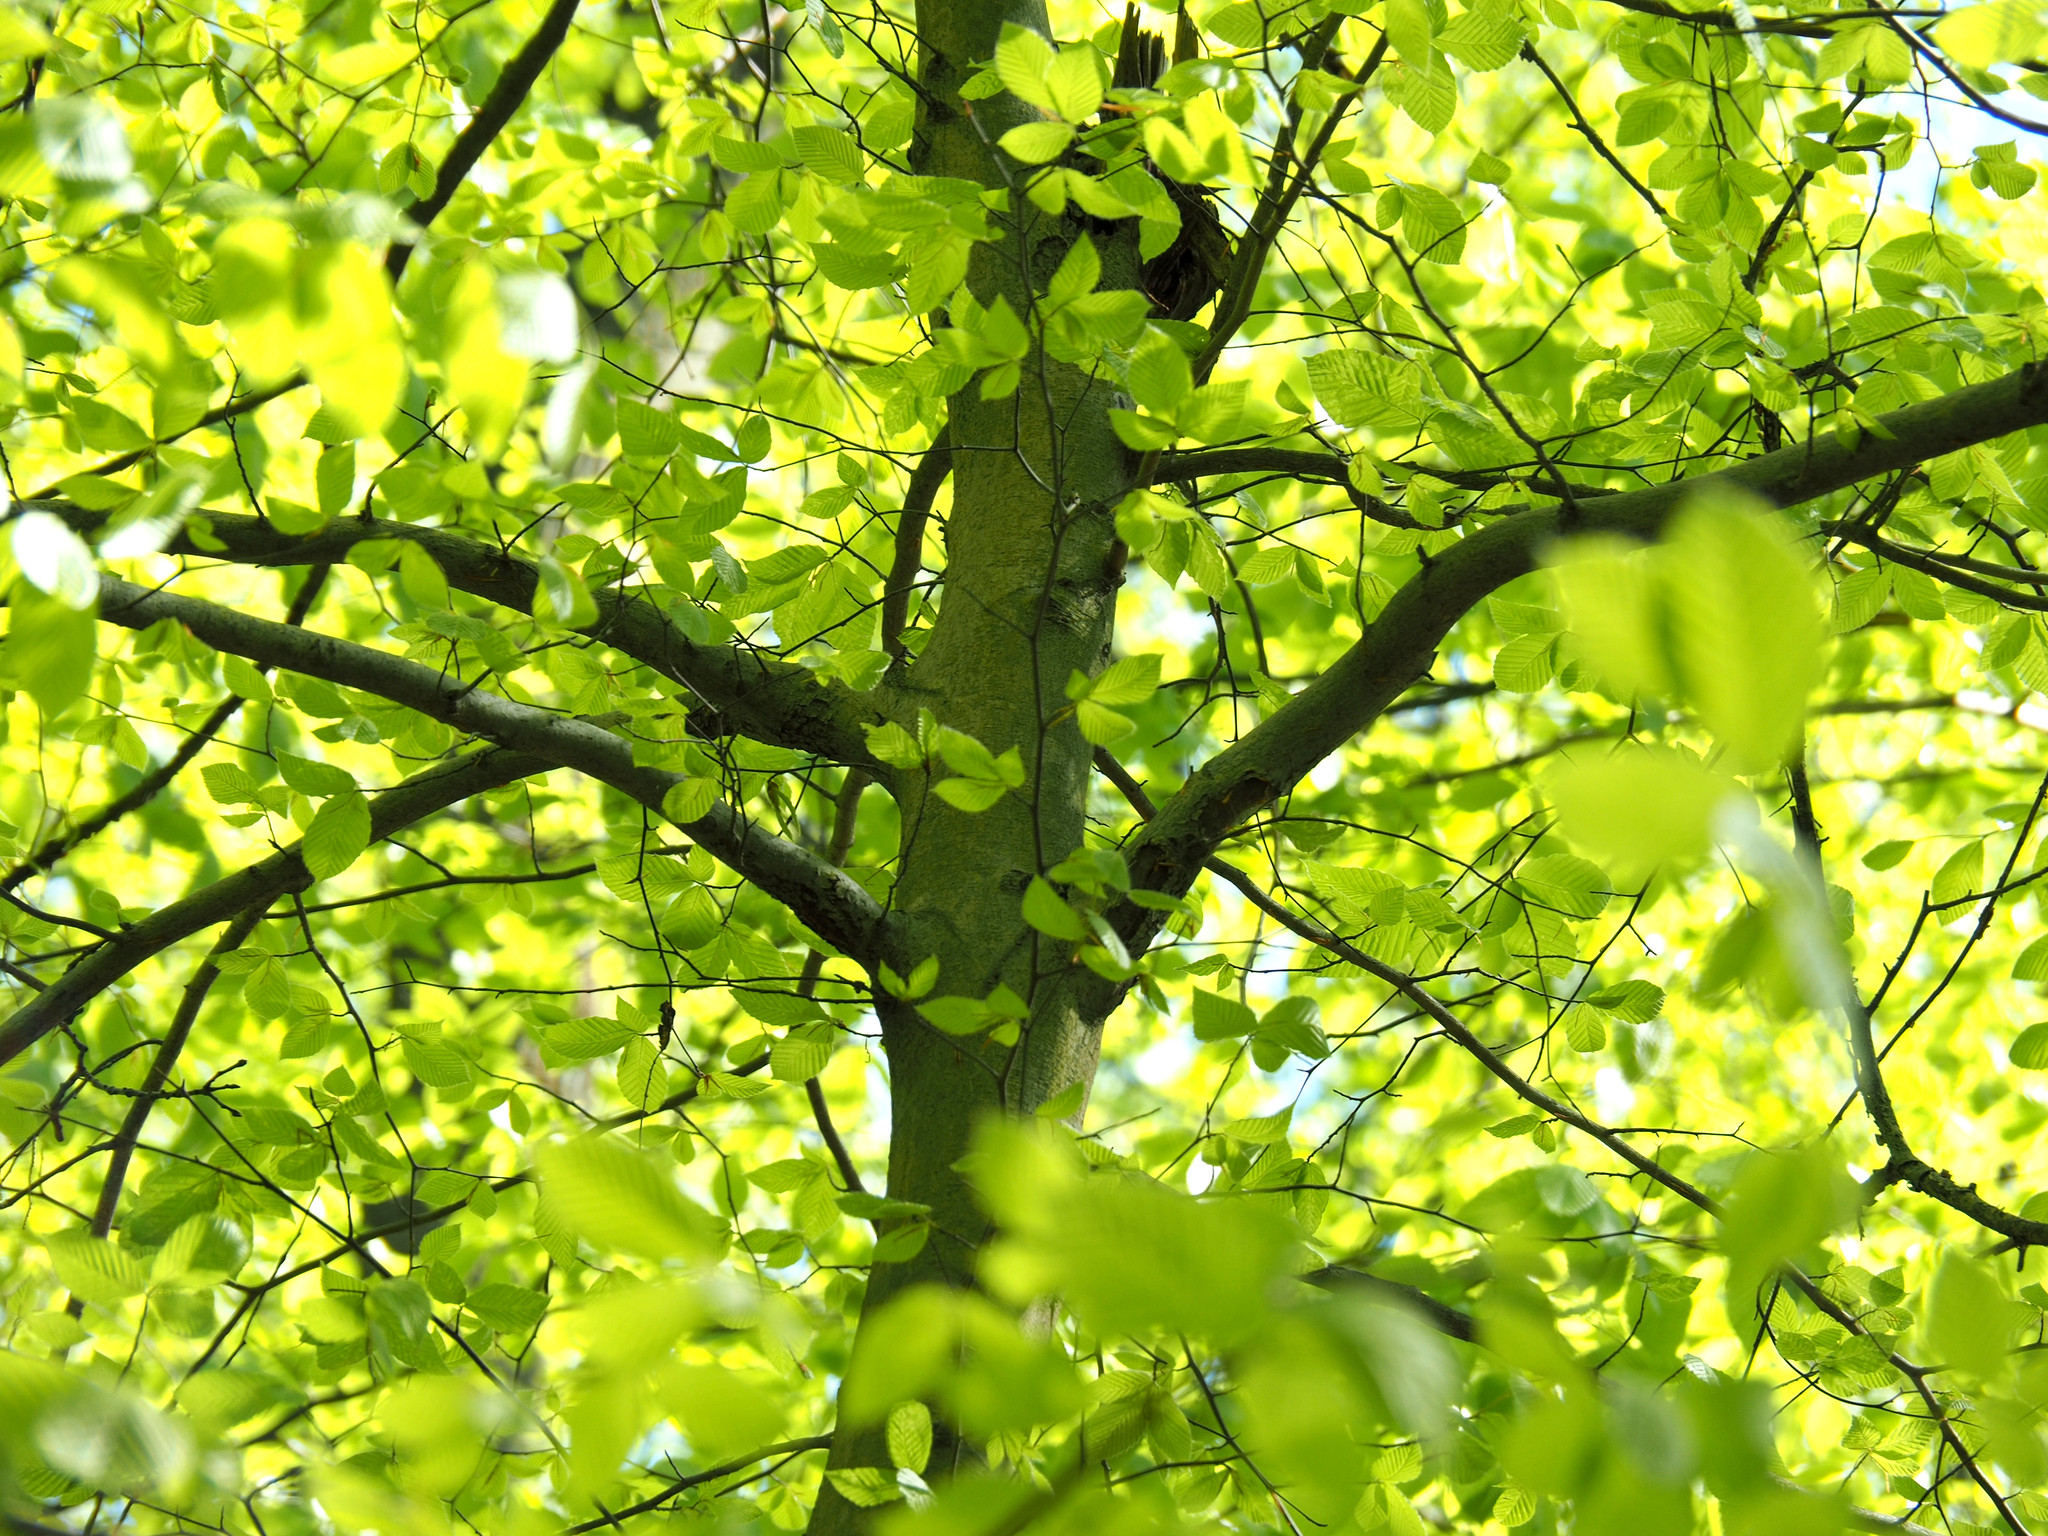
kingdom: Plantae
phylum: Tracheophyta
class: Magnoliopsida
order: Fagales
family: Fagaceae
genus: Fagus
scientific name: Fagus grandifolia
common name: American beech
